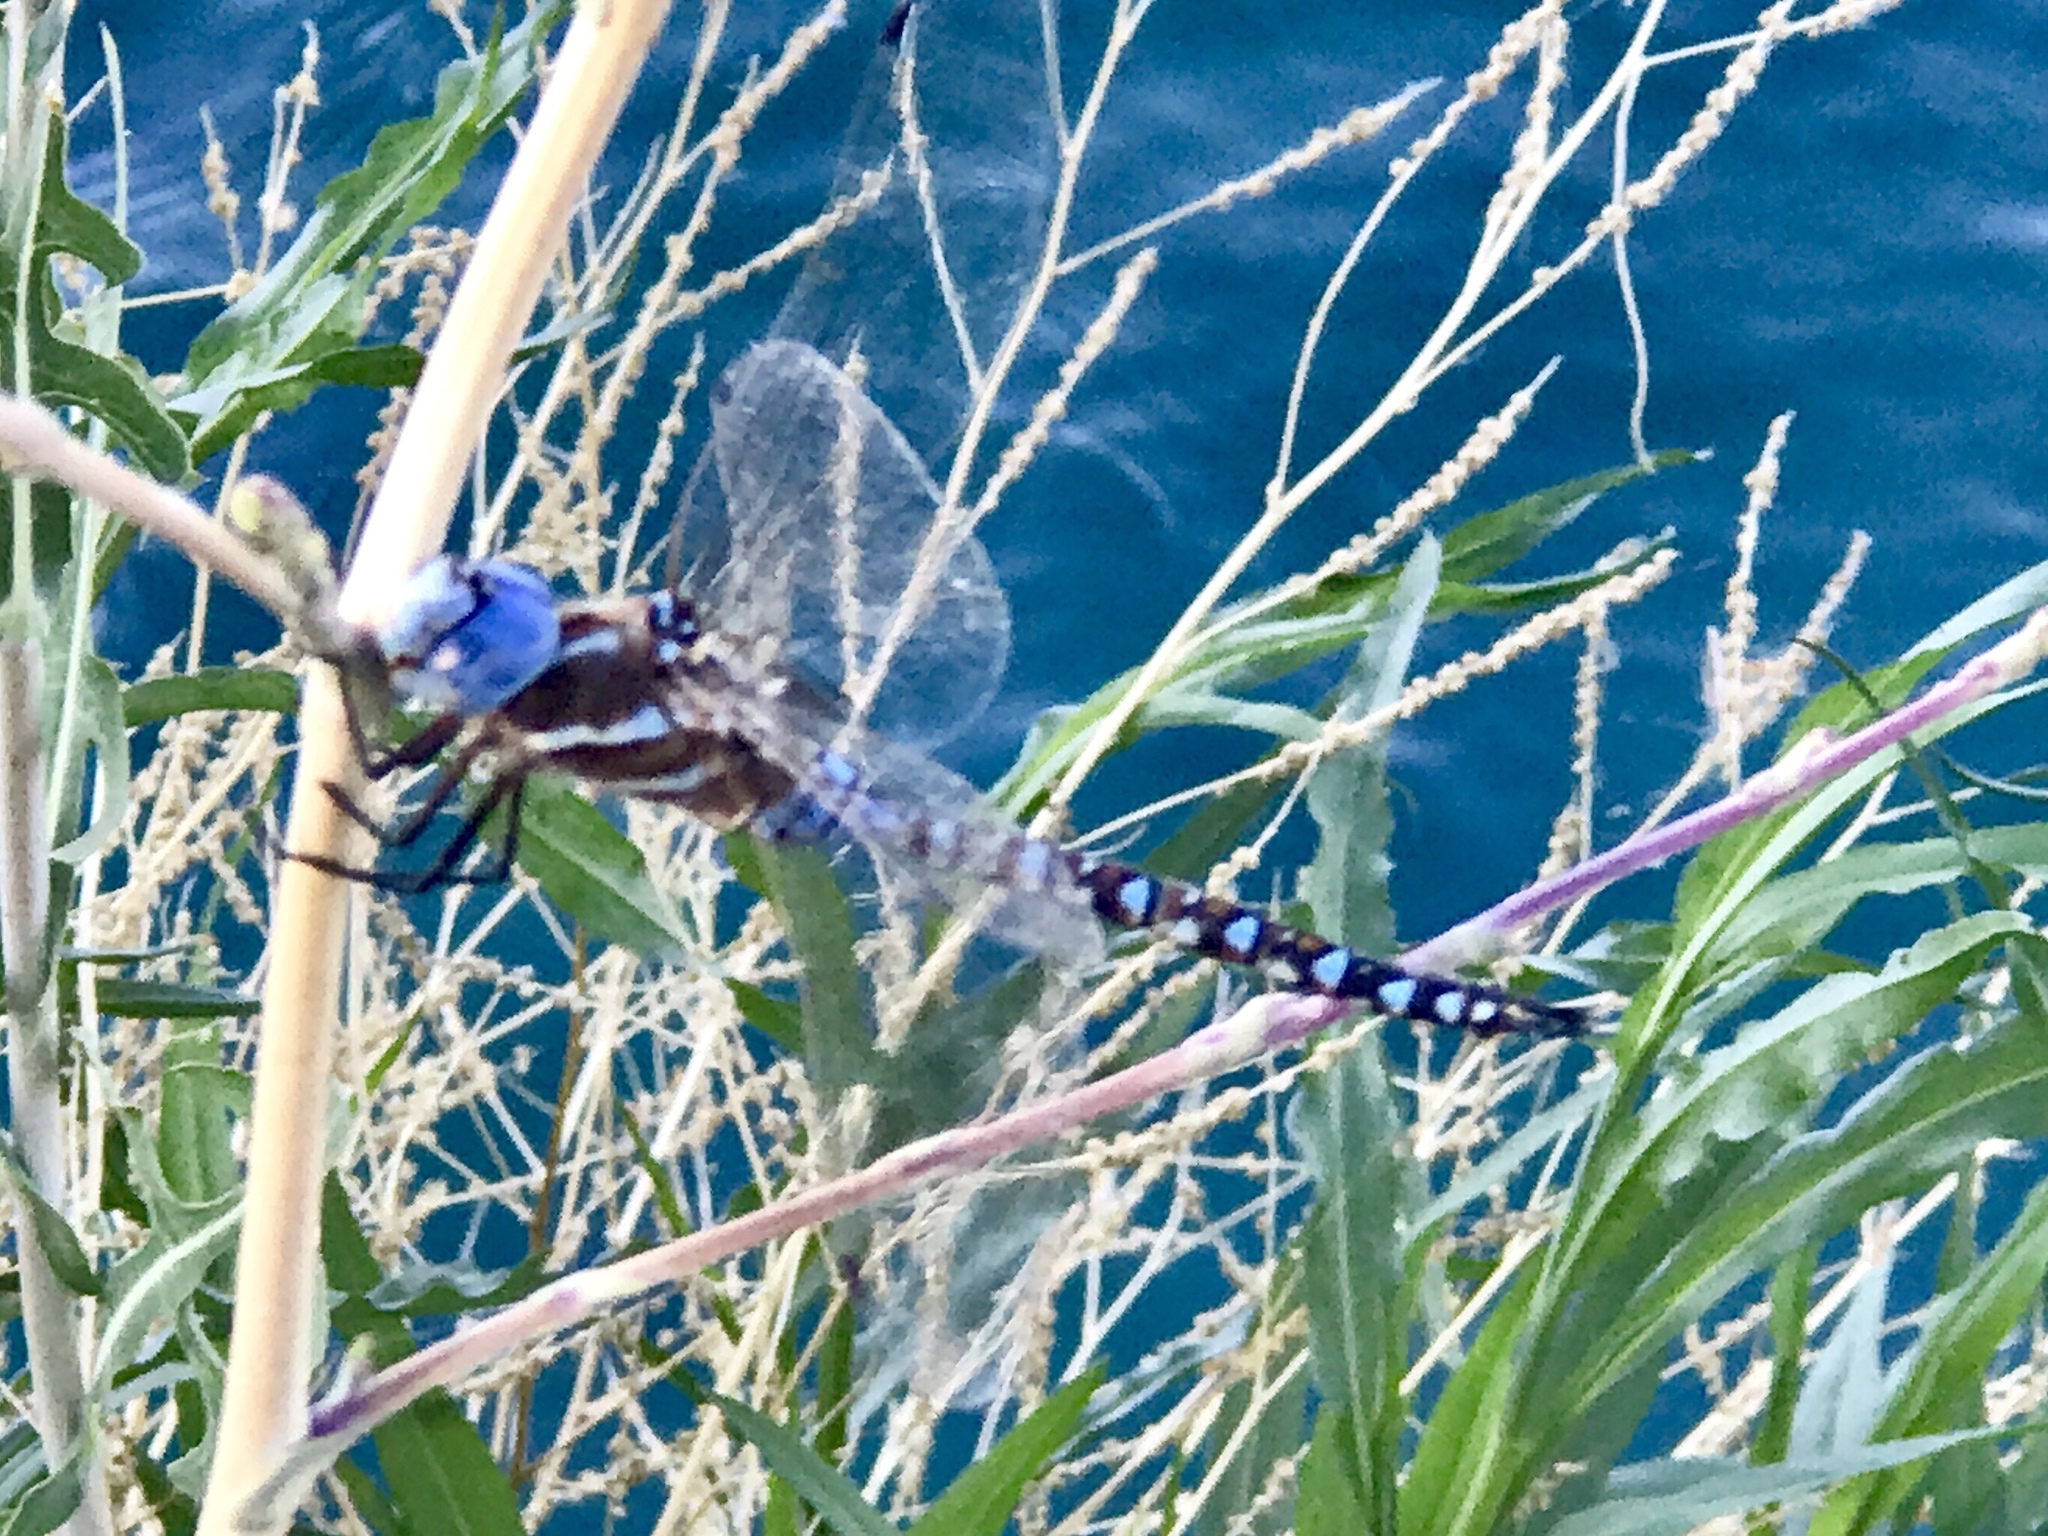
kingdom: Animalia
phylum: Arthropoda
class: Insecta
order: Odonata
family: Aeshnidae
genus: Rhionaeschna
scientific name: Rhionaeschna
